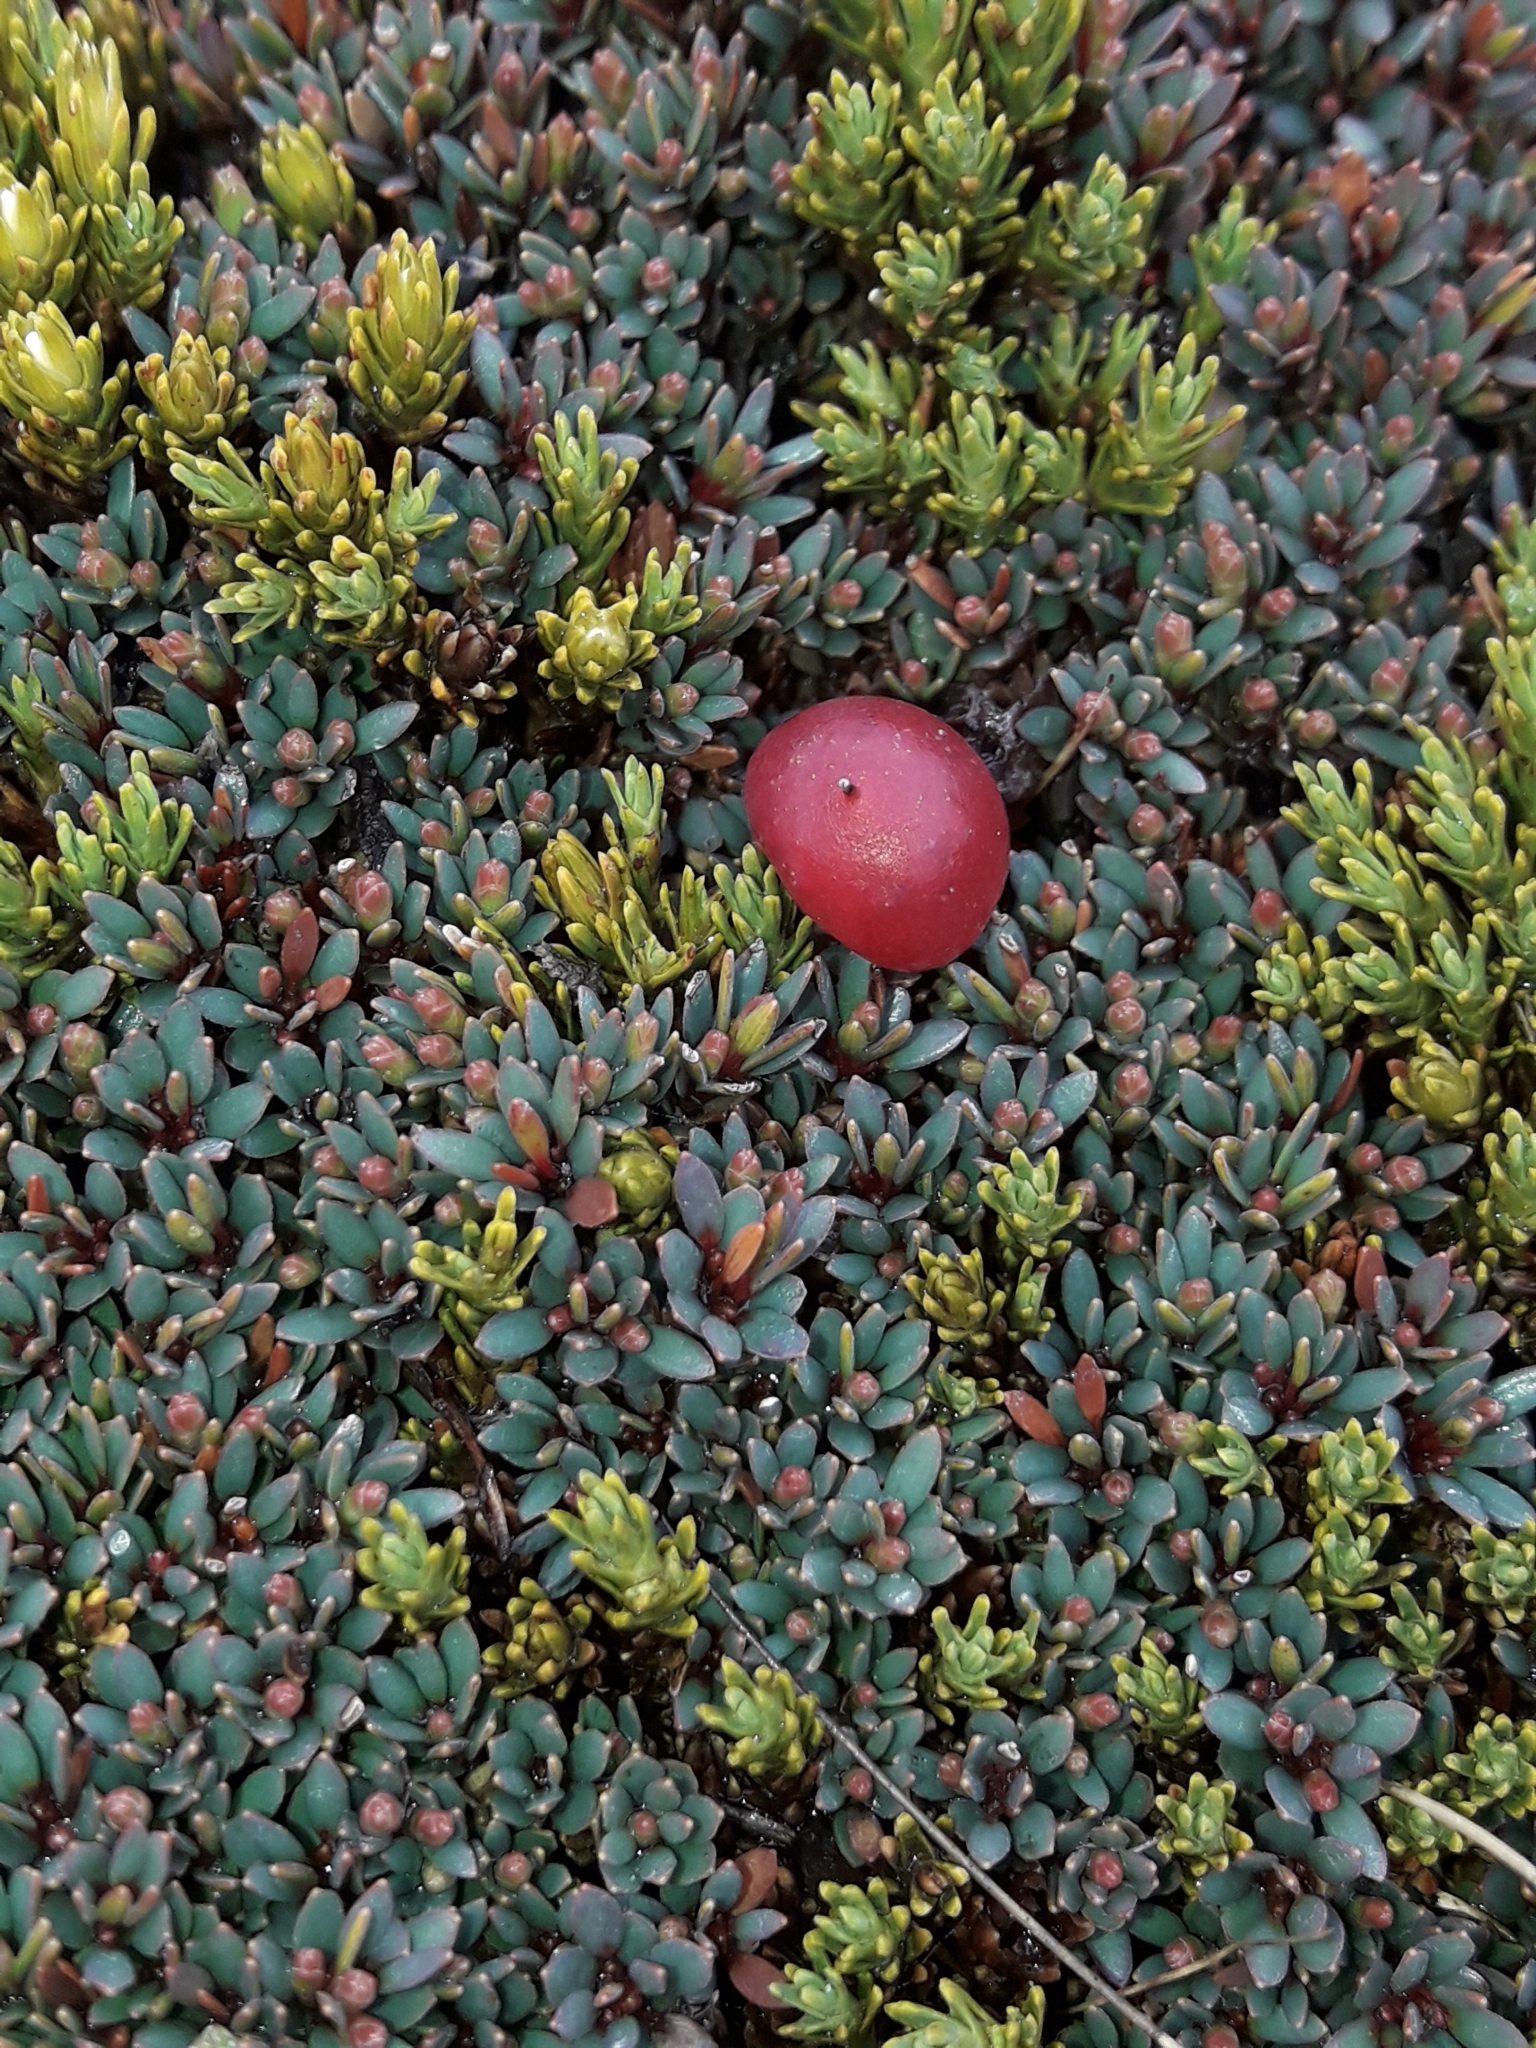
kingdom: Plantae
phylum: Tracheophyta
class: Magnoliopsida
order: Ericales
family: Ericaceae
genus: Pentachondra
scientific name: Pentachondra pumila
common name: Carpet-heath
